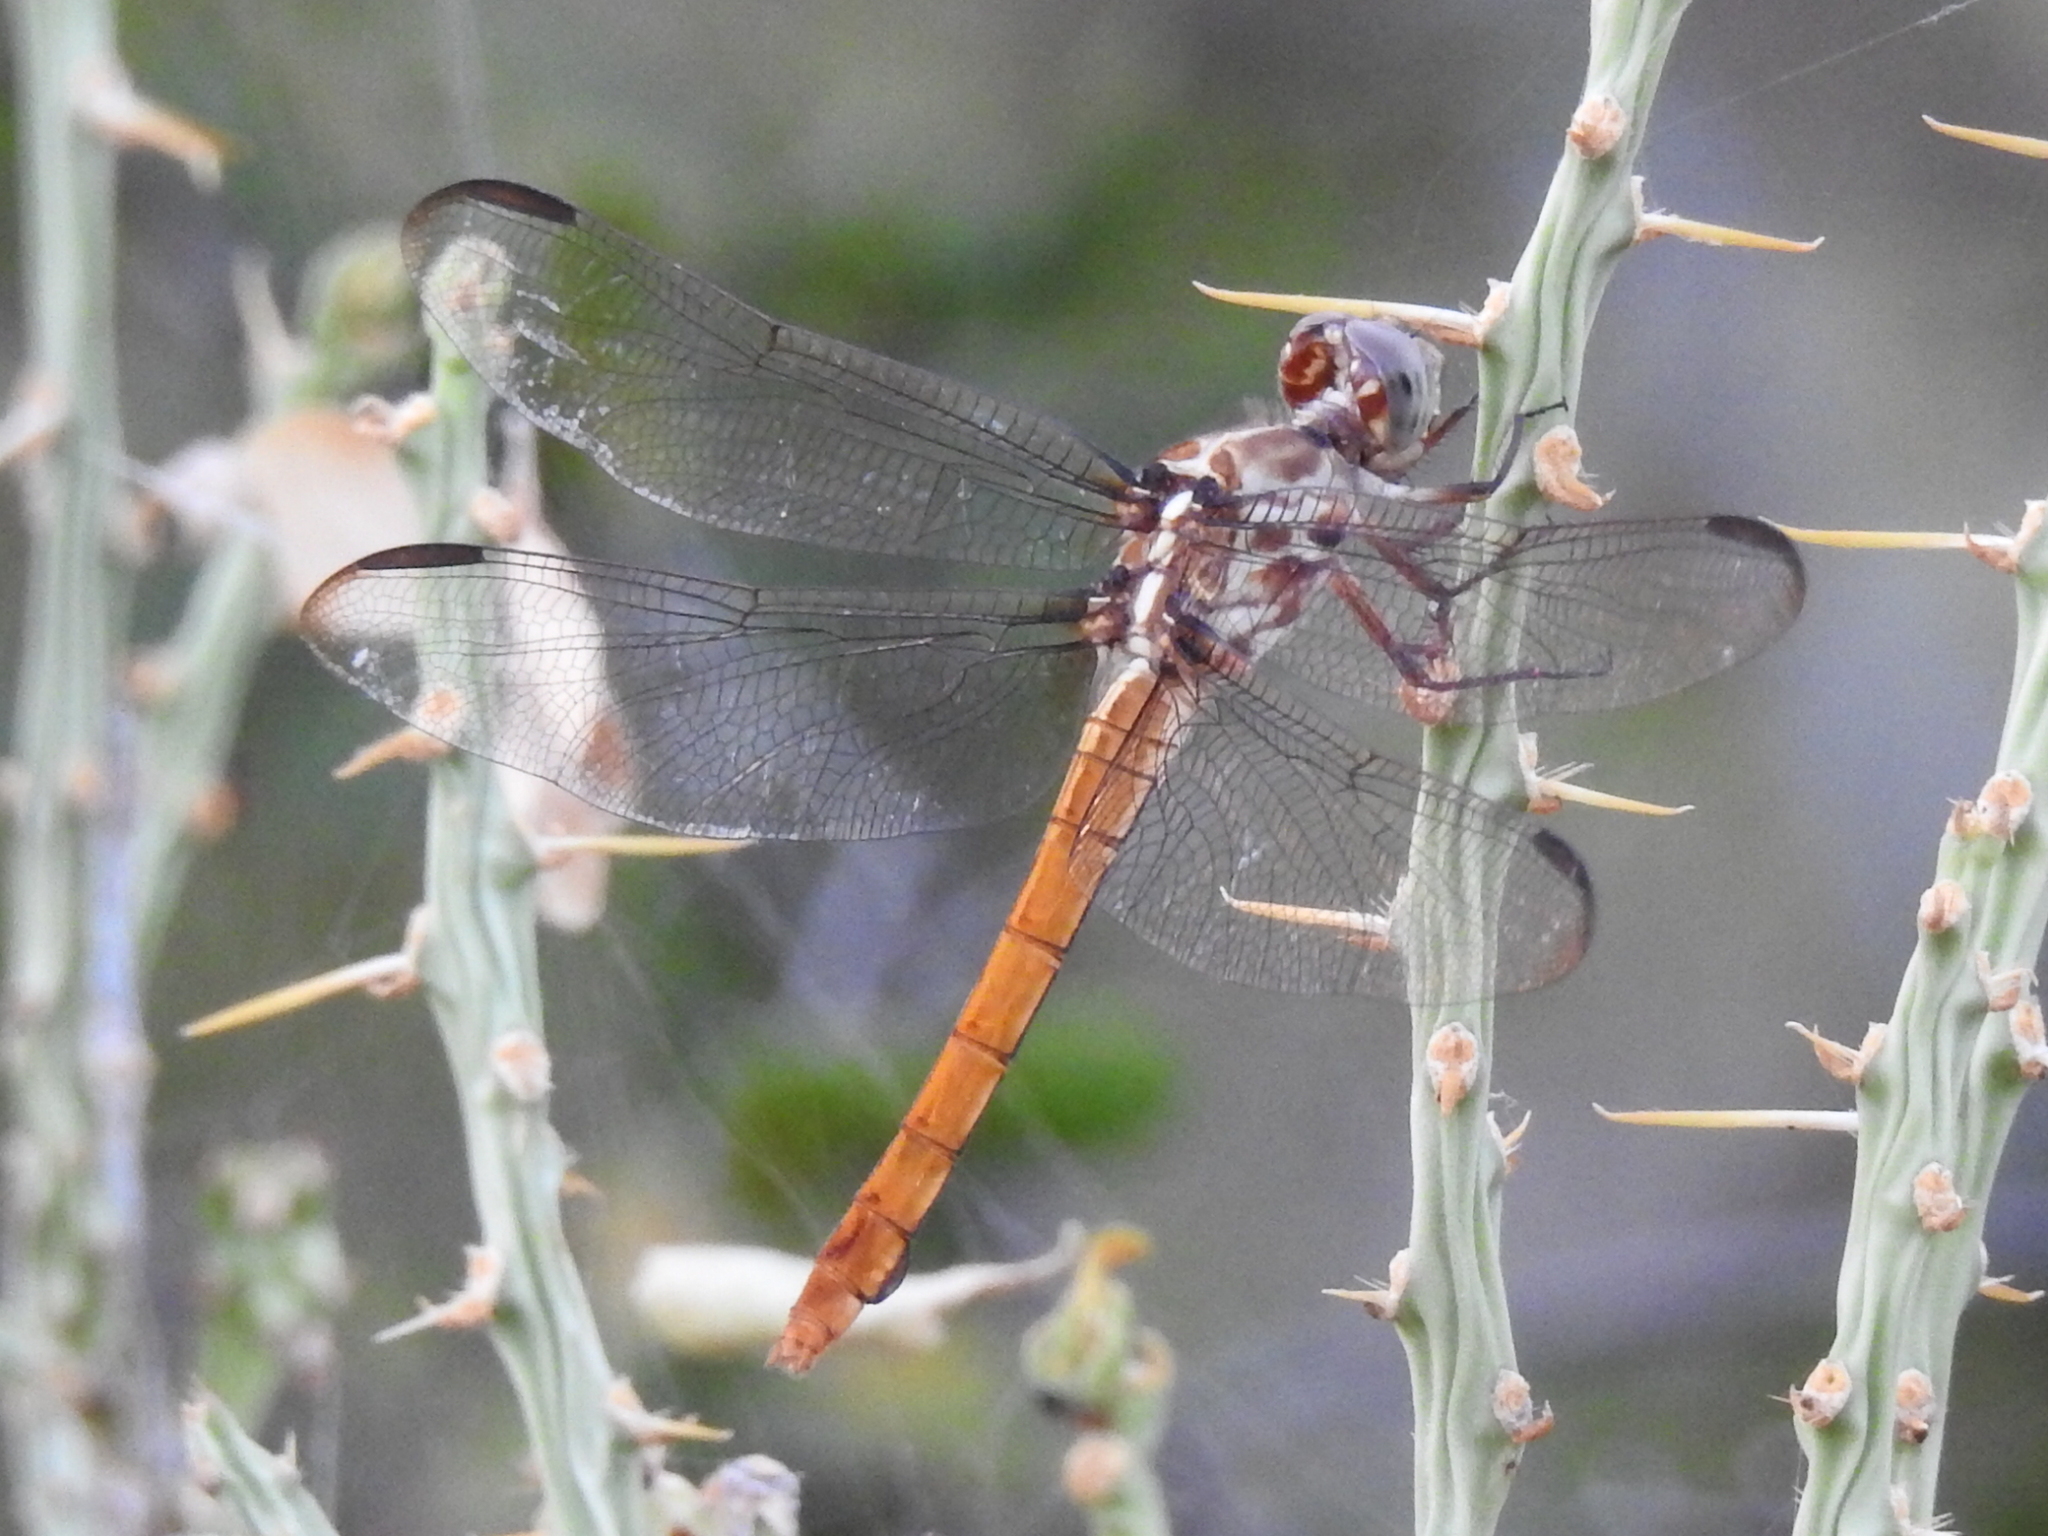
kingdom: Animalia
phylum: Arthropoda
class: Insecta
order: Odonata
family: Libellulidae
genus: Orthemis
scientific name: Orthemis ferruginea
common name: Roseate skimmer
